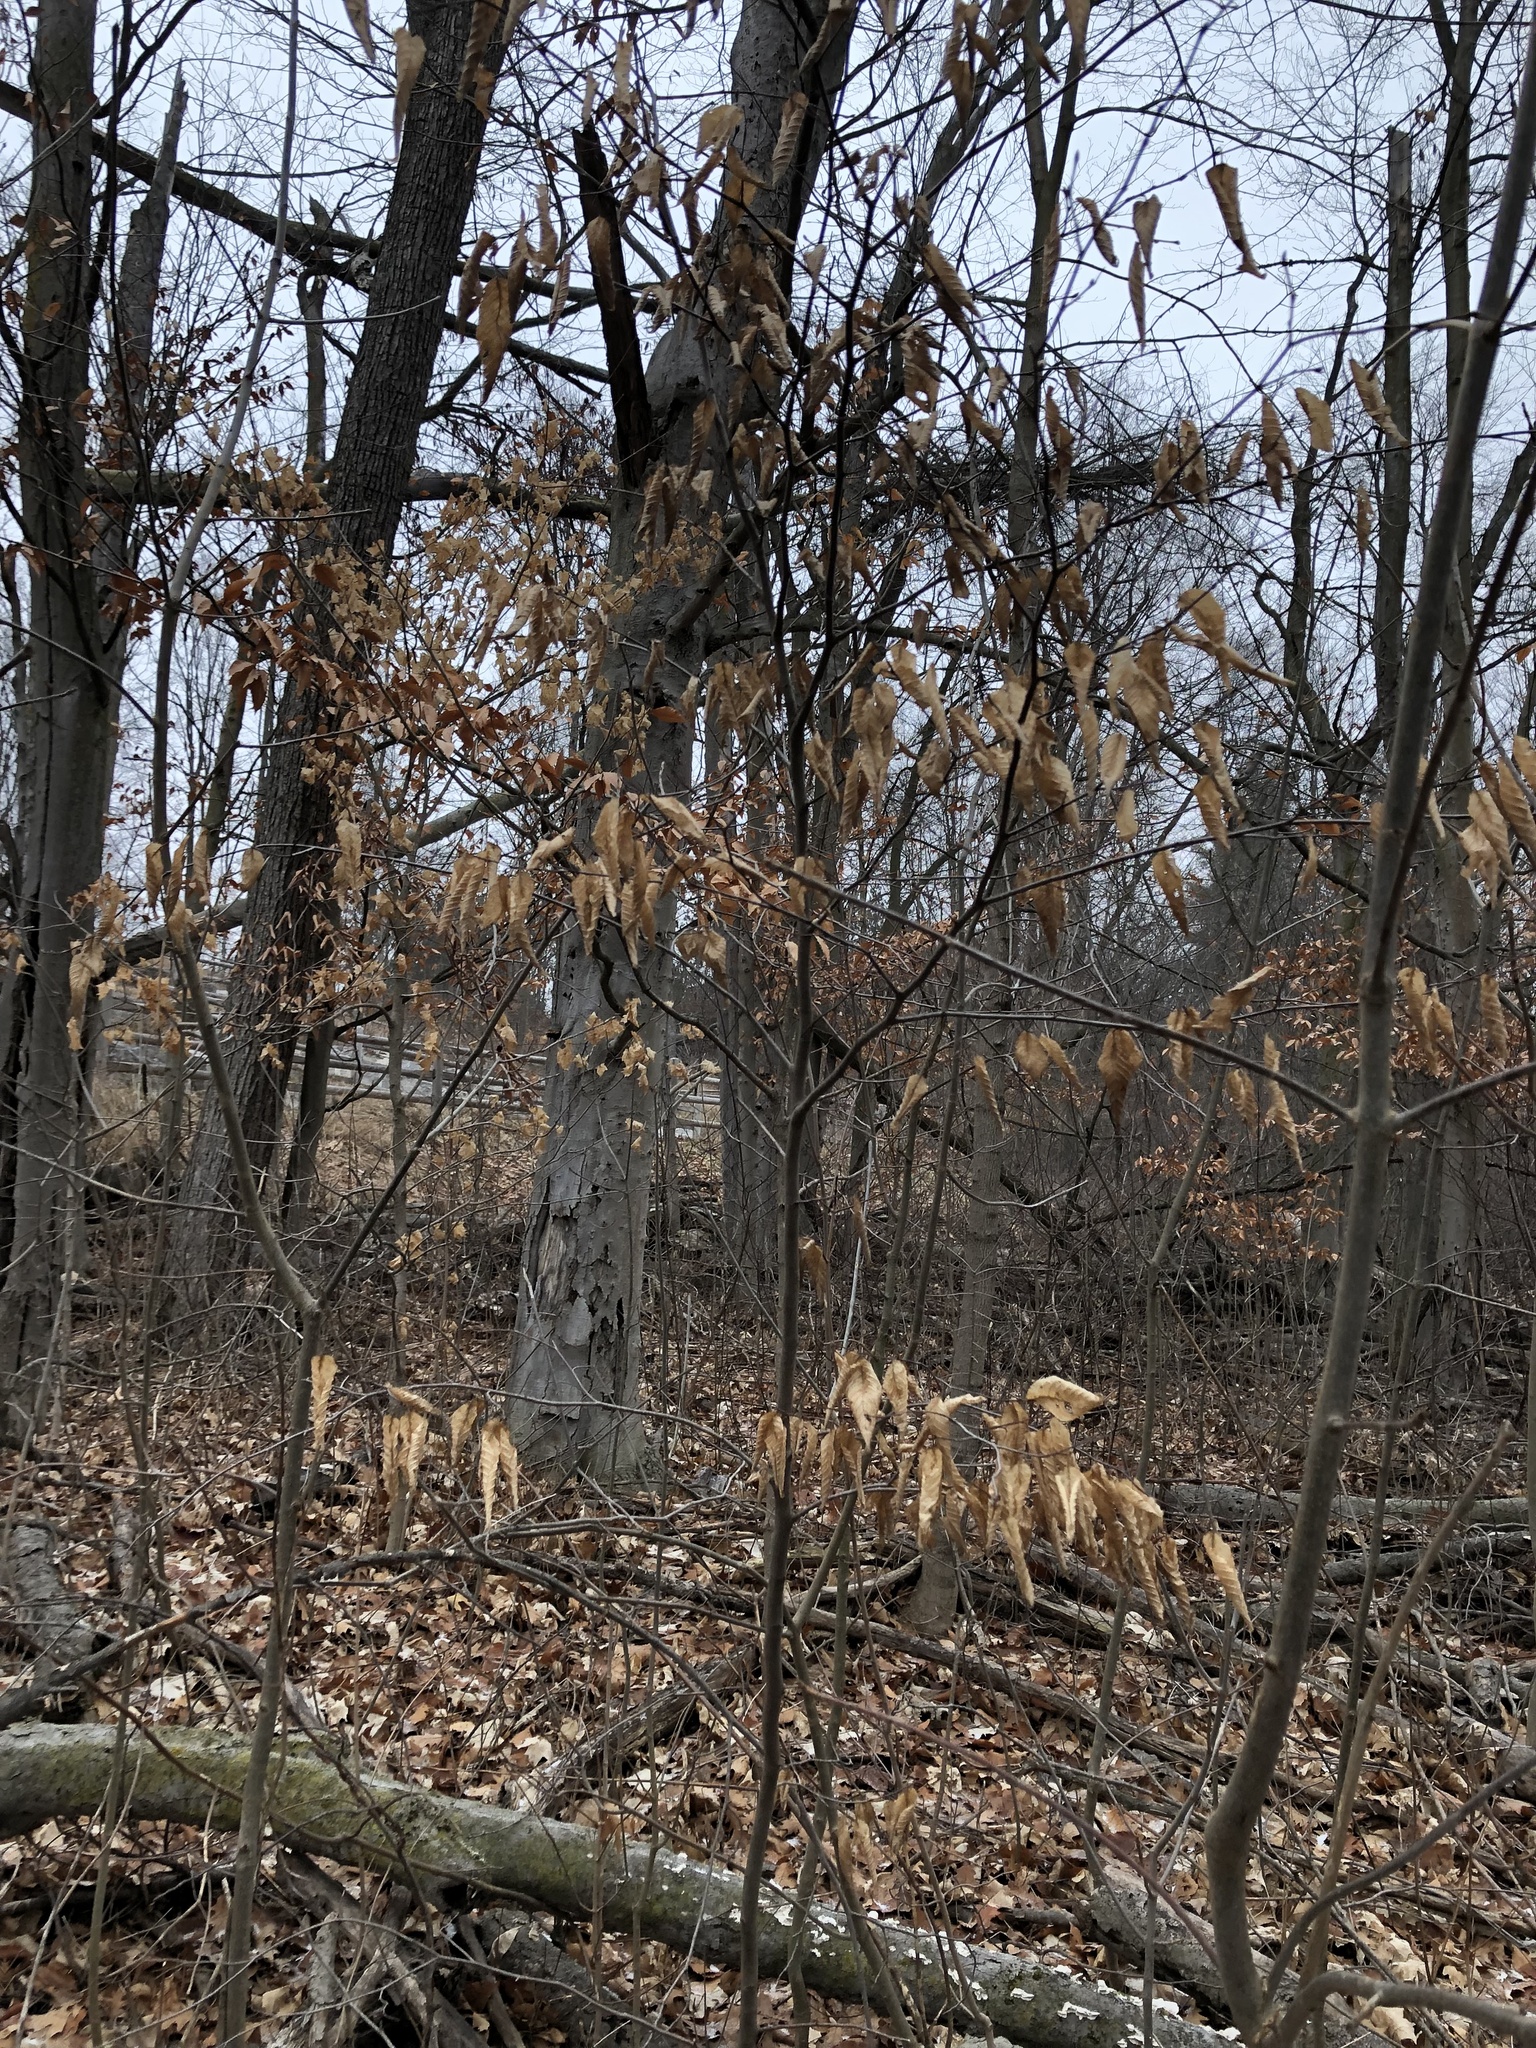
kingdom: Plantae
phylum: Tracheophyta
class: Magnoliopsida
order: Fagales
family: Fagaceae
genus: Fagus
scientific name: Fagus grandifolia
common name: American beech
